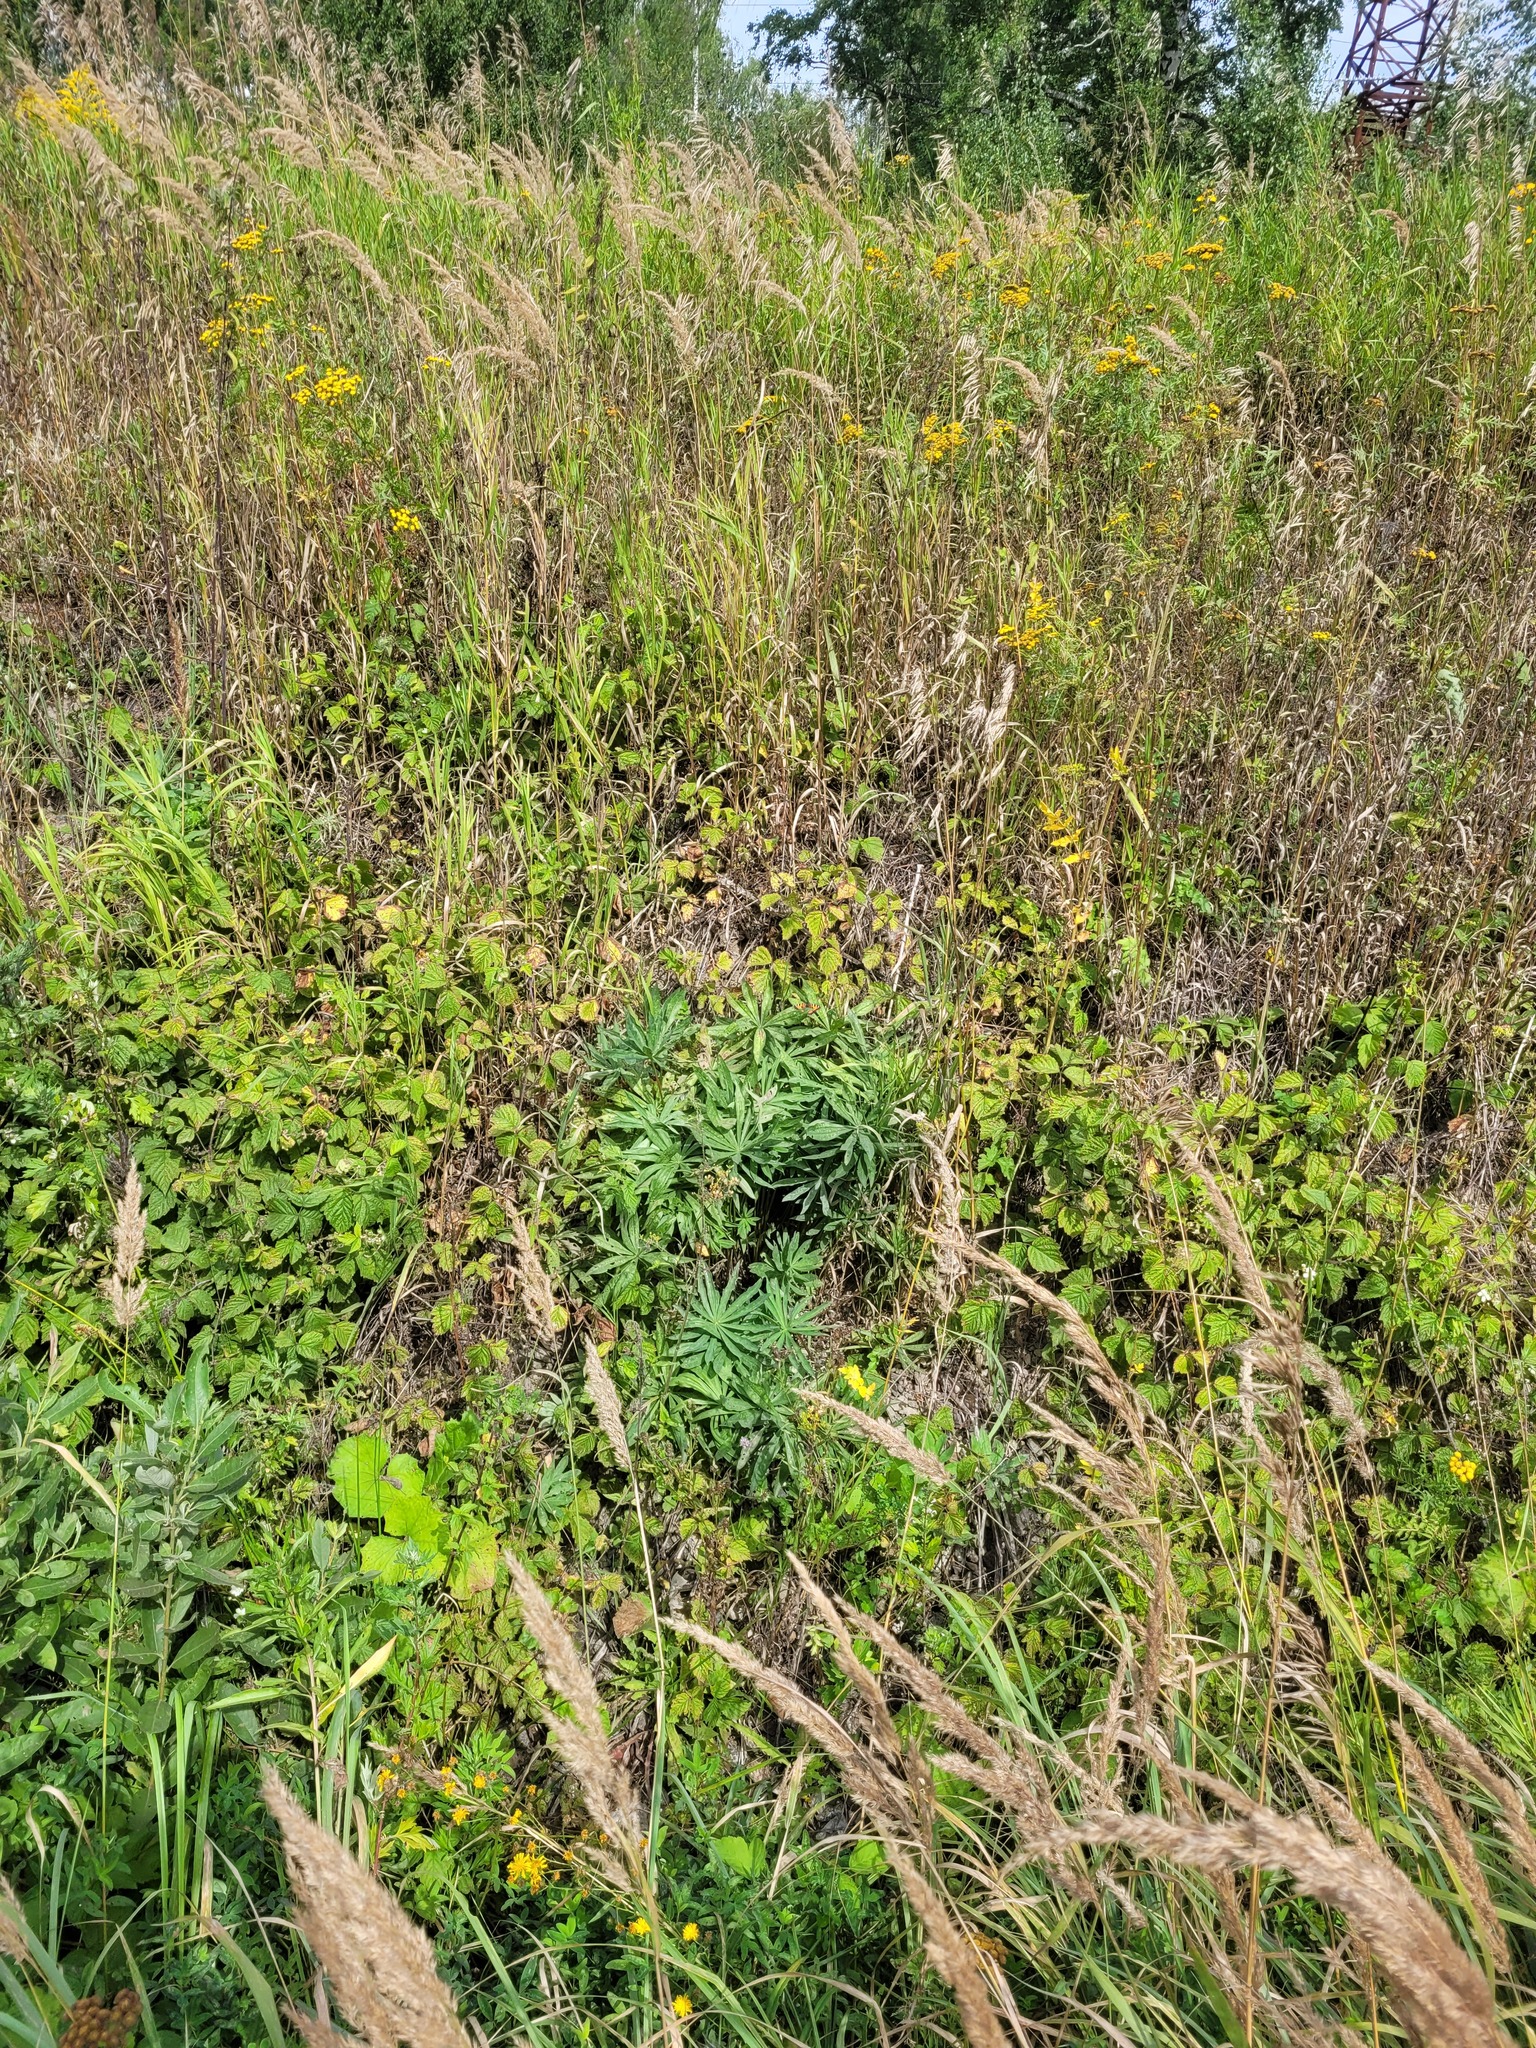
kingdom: Plantae
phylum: Tracheophyta
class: Magnoliopsida
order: Fabales
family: Fabaceae
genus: Lupinus
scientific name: Lupinus polyphyllus
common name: Garden lupin
